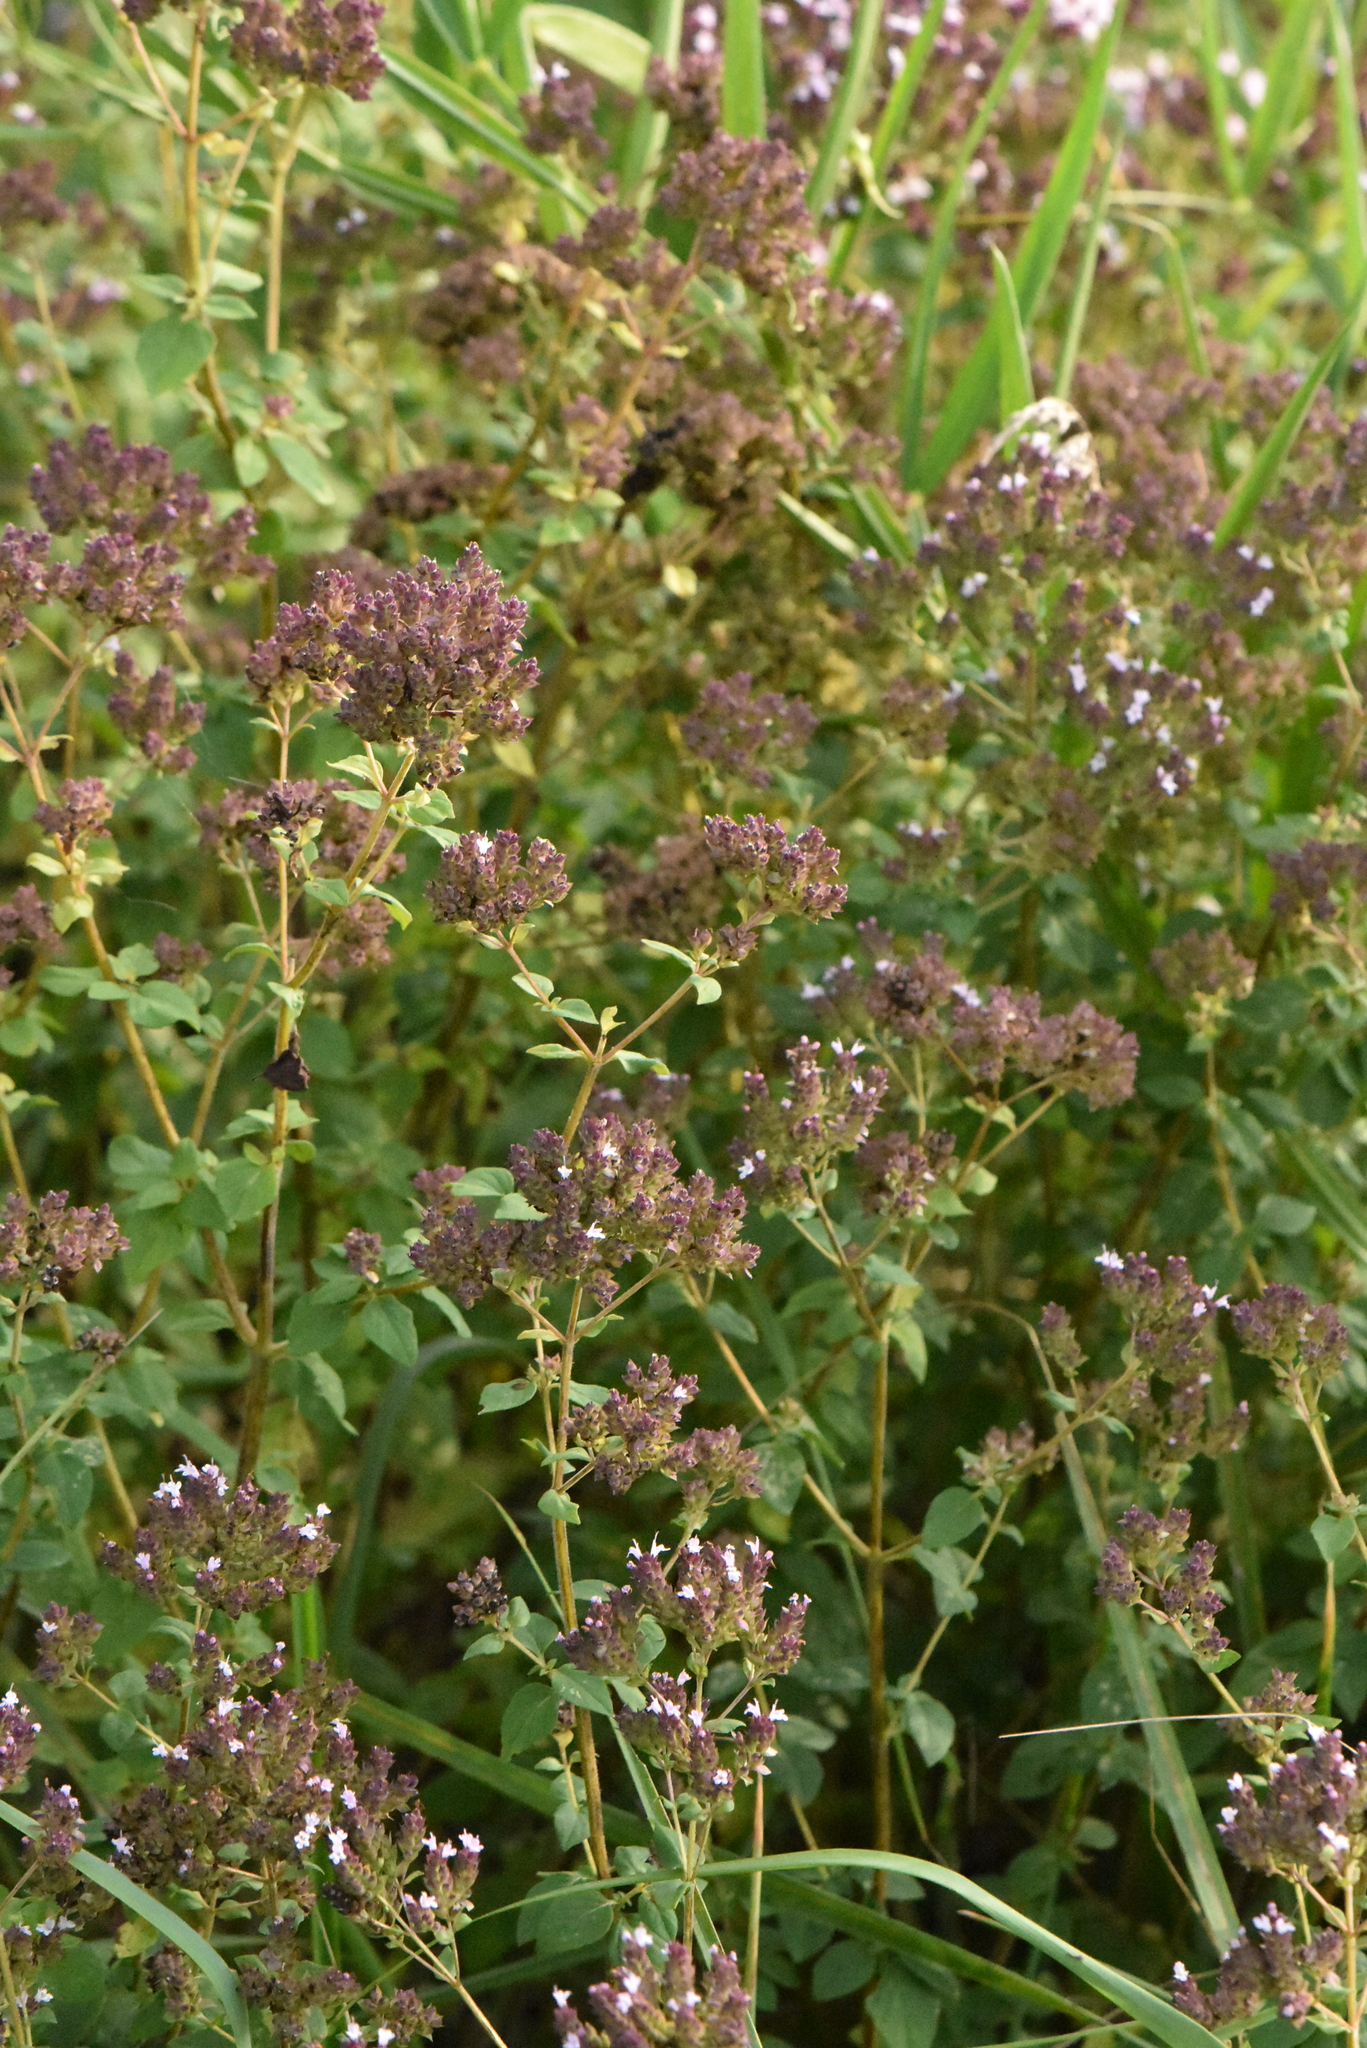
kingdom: Plantae
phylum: Tracheophyta
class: Magnoliopsida
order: Lamiales
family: Lamiaceae
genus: Origanum
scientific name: Origanum vulgare
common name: Wild marjoram
